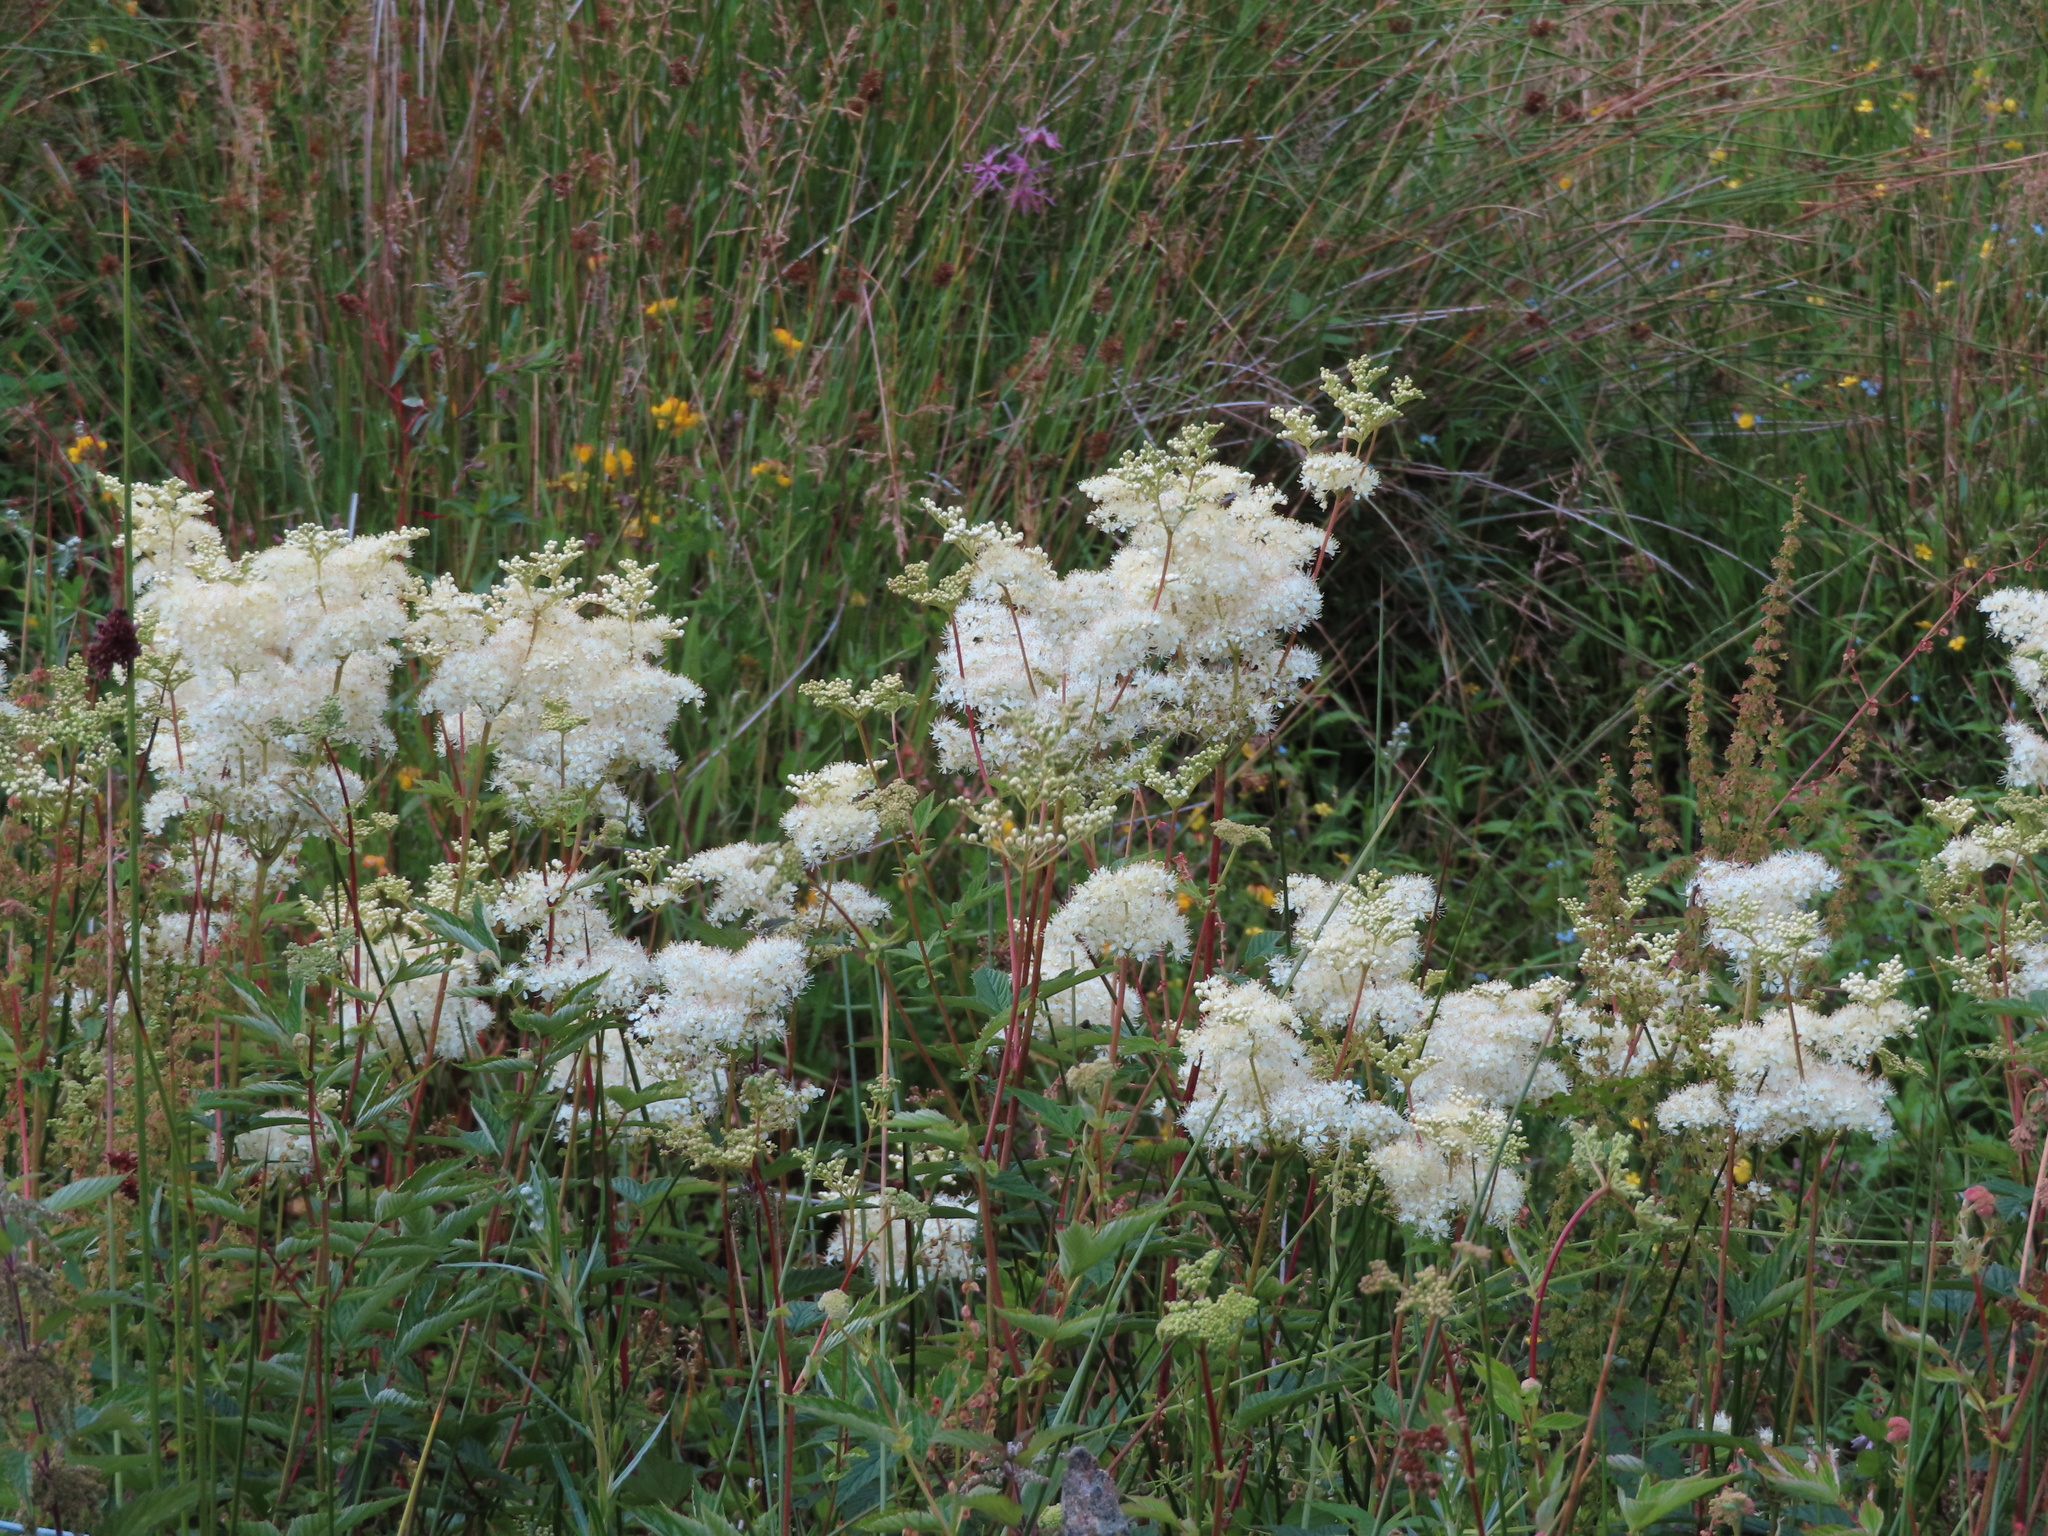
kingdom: Plantae
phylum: Tracheophyta
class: Magnoliopsida
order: Rosales
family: Rosaceae
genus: Filipendula
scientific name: Filipendula ulmaria
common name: Meadowsweet
